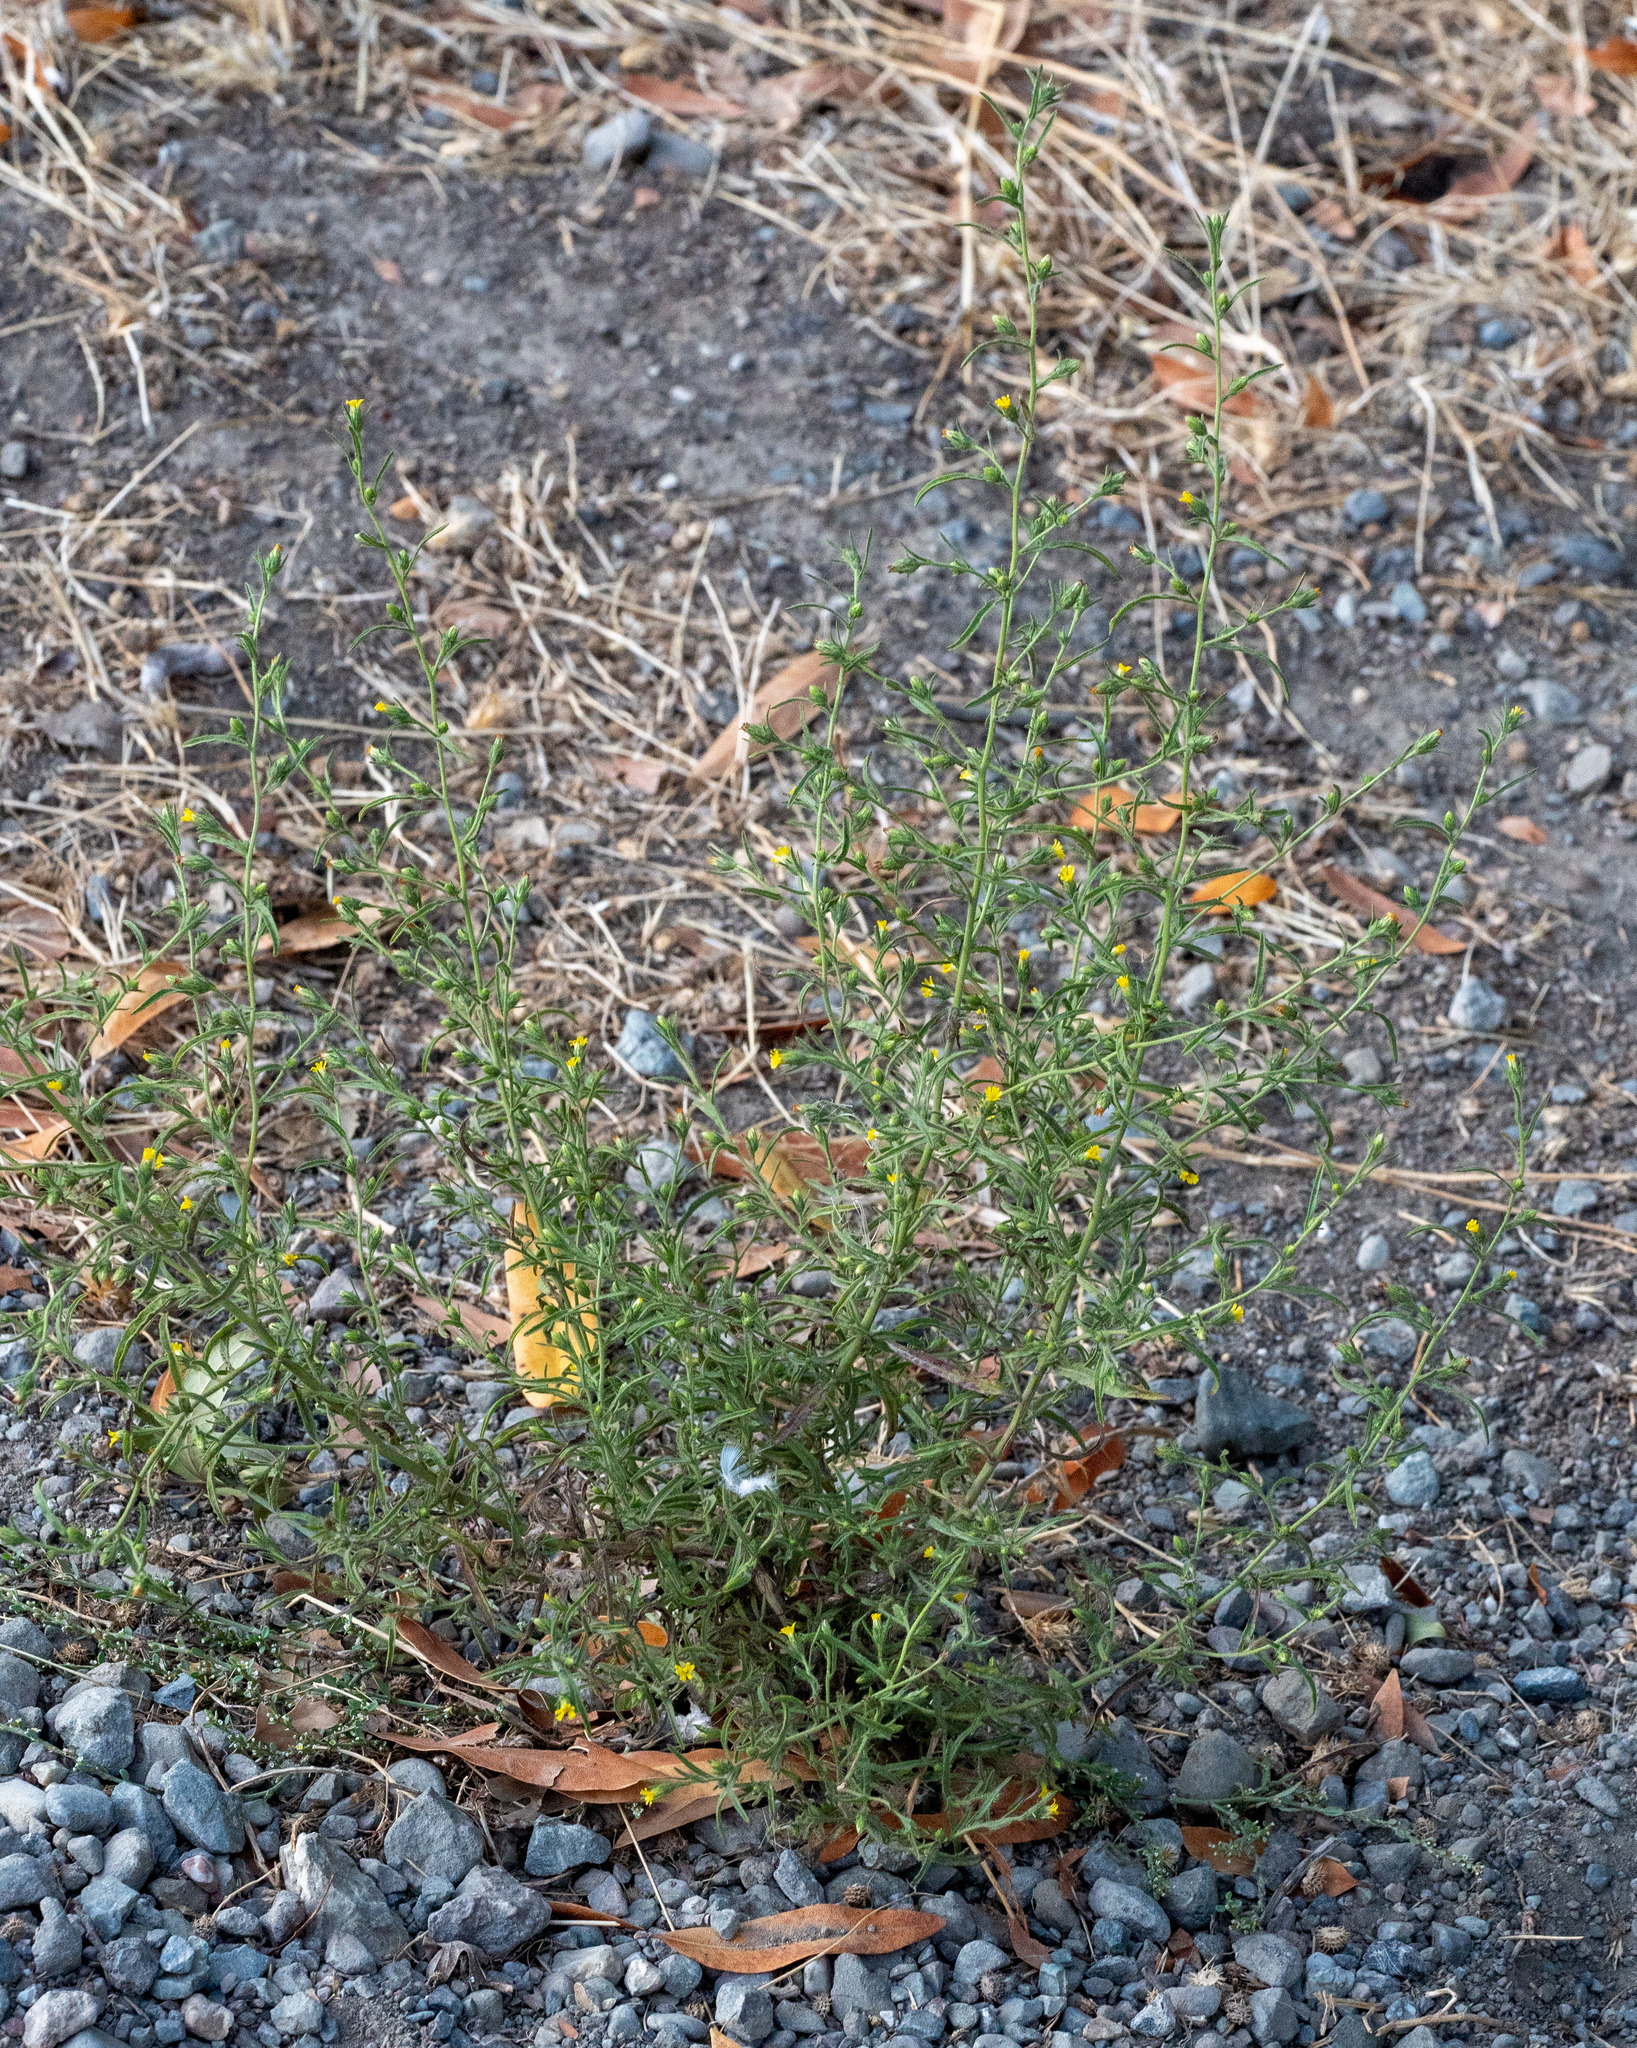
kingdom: Plantae
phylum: Tracheophyta
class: Magnoliopsida
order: Asterales
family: Asteraceae
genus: Dittrichia
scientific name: Dittrichia graveolens
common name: Stinking fleabane
